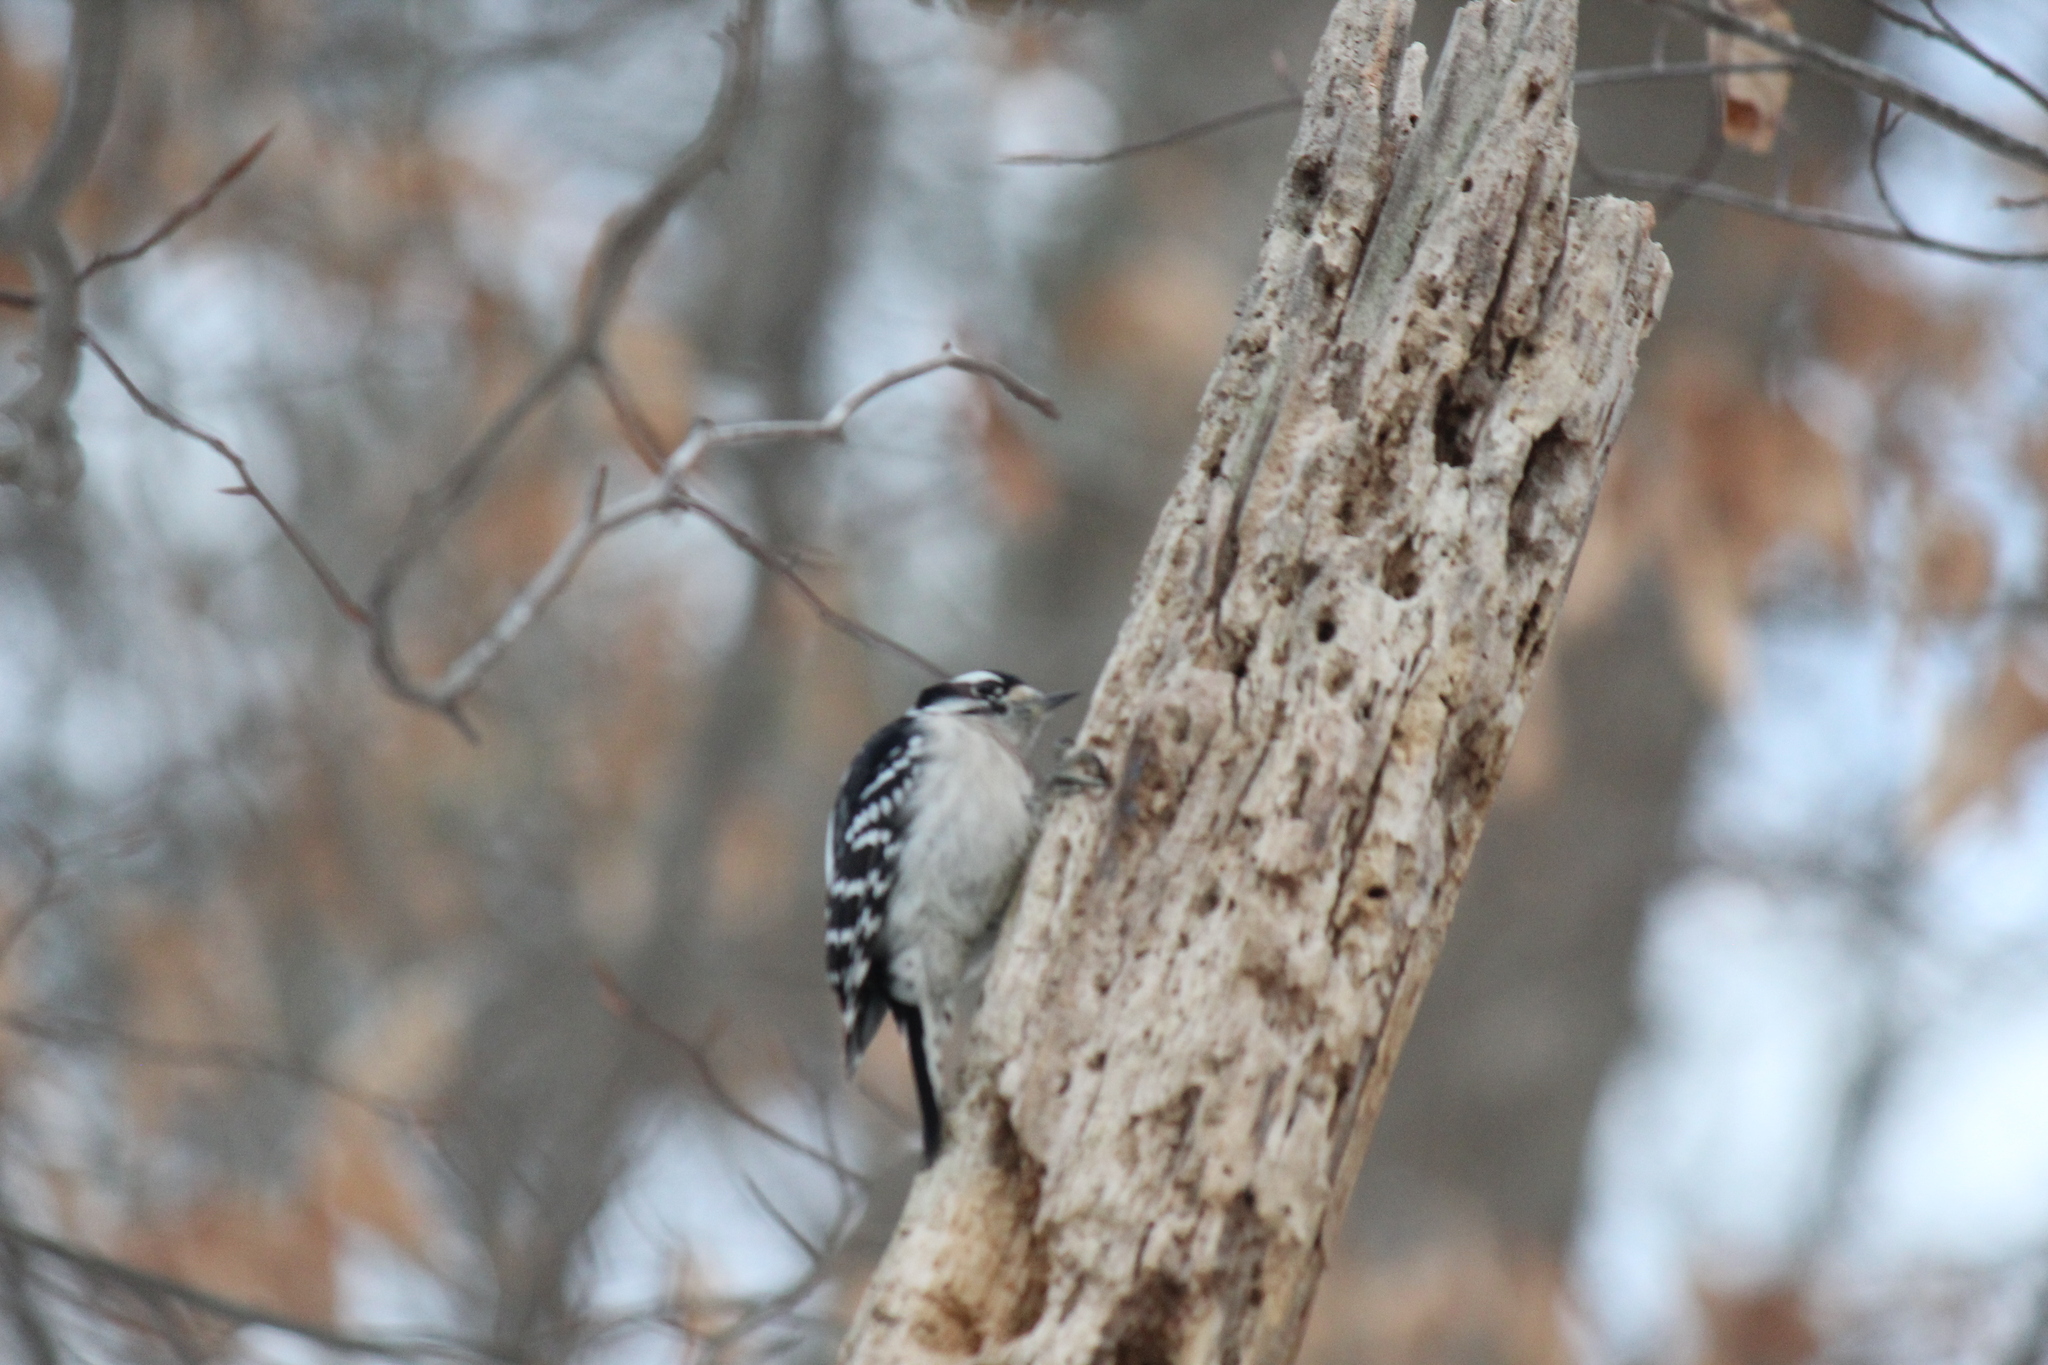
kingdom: Animalia
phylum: Chordata
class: Aves
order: Piciformes
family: Picidae
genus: Dryobates
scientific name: Dryobates pubescens
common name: Downy woodpecker
